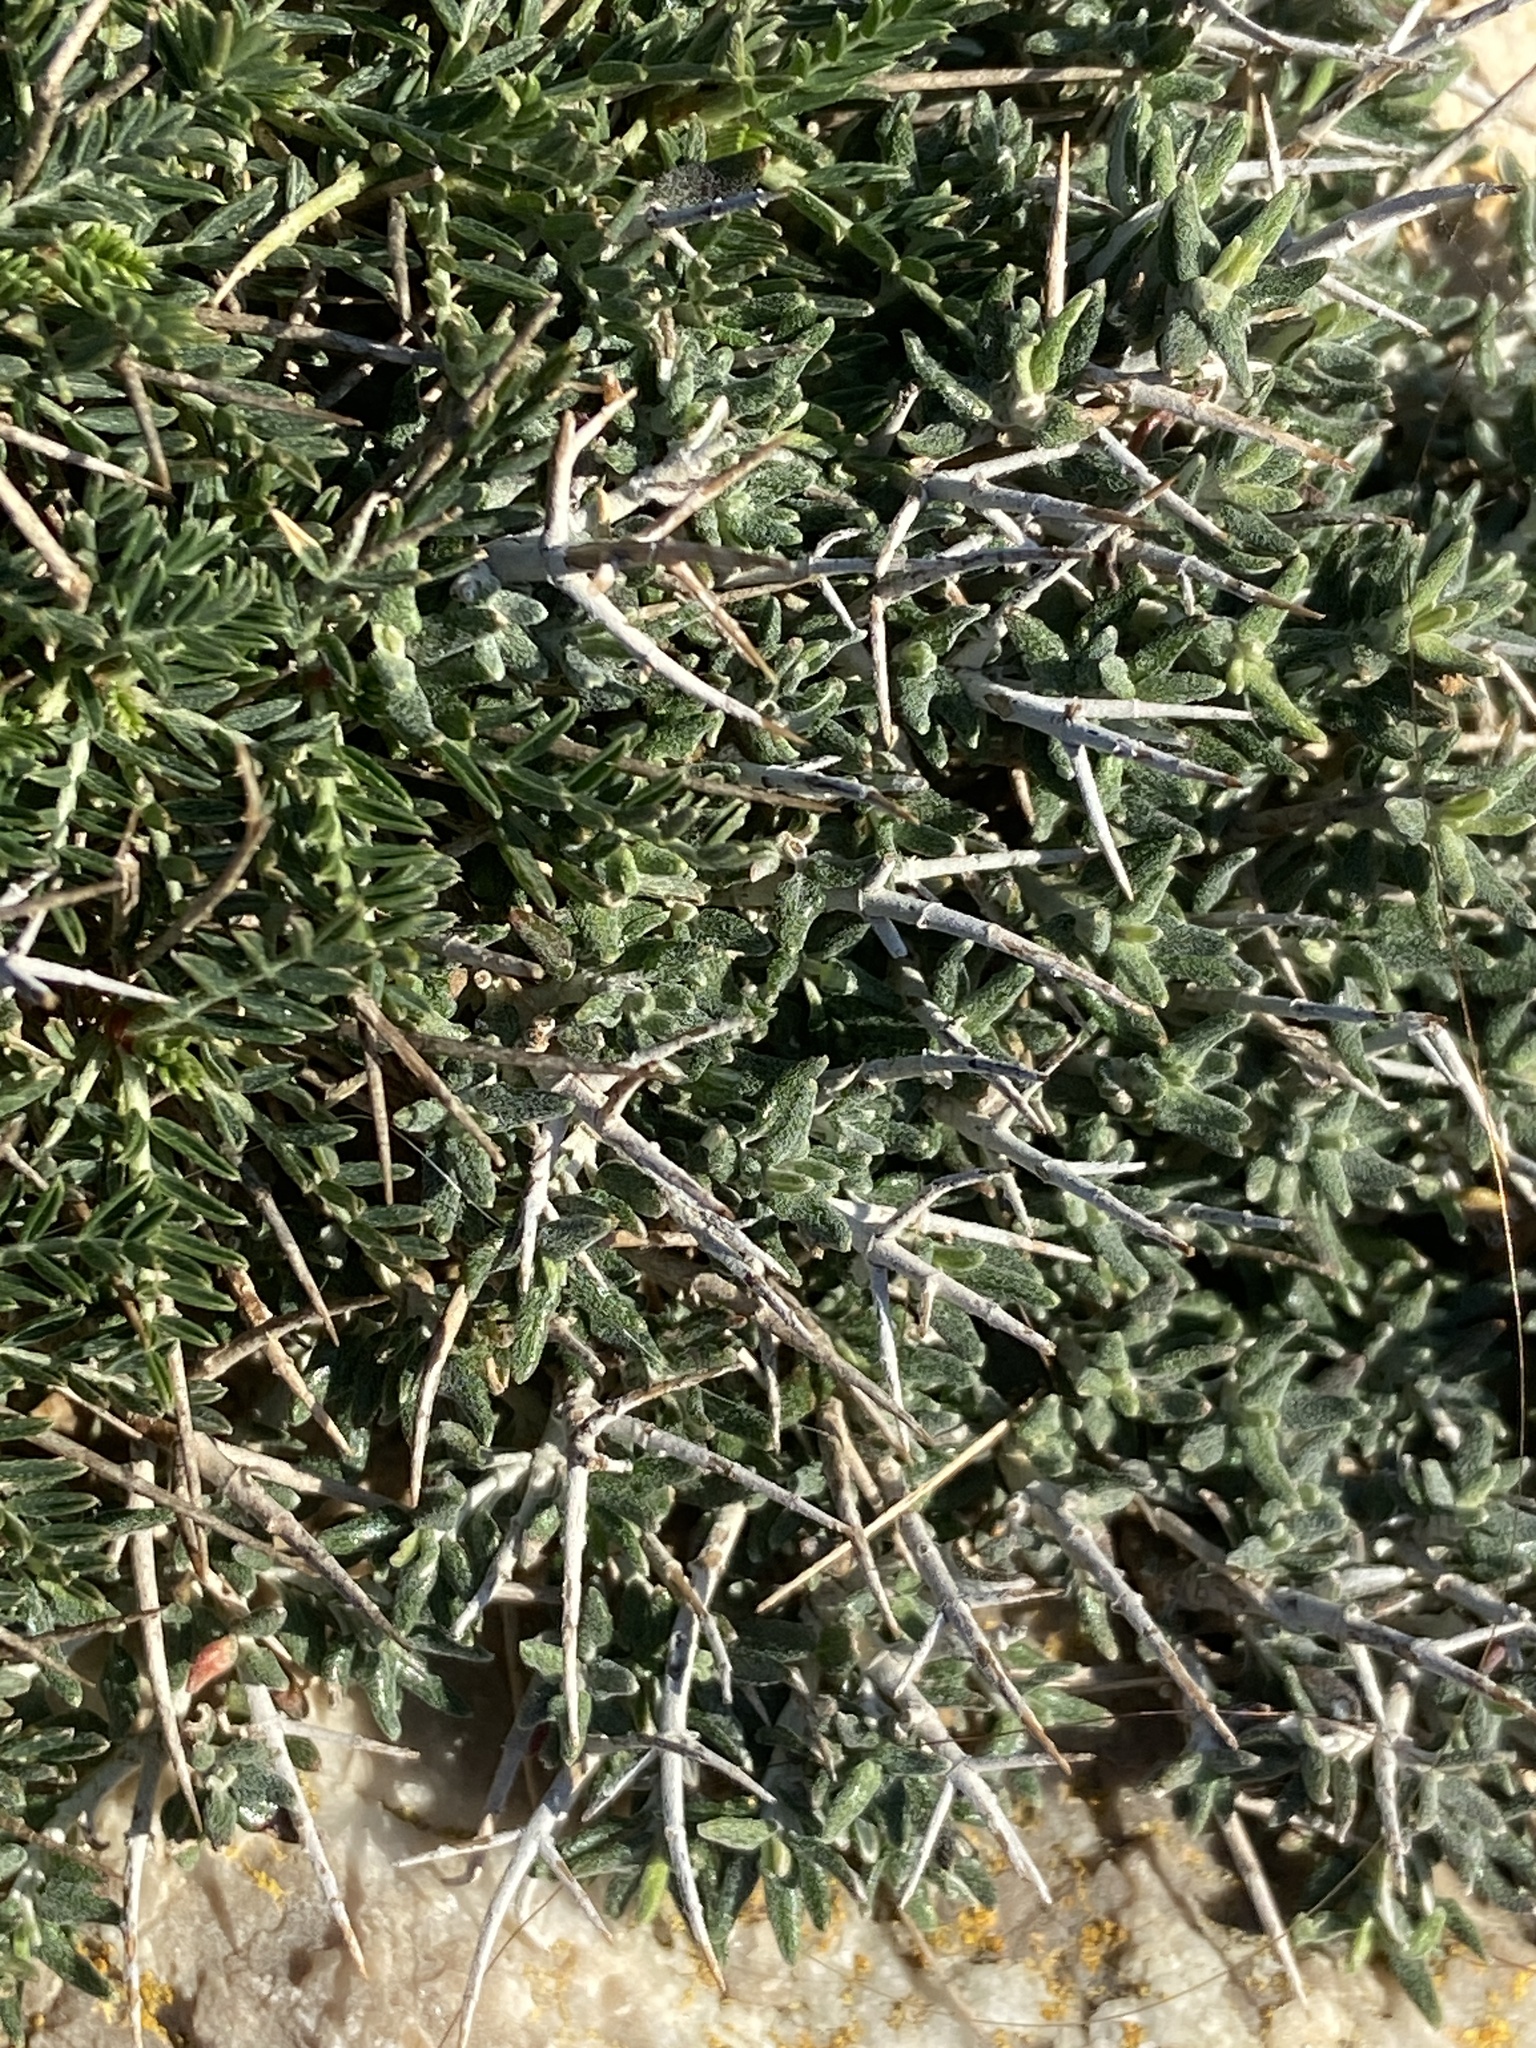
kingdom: Plantae
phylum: Tracheophyta
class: Magnoliopsida
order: Lamiales
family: Lamiaceae
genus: Teucrium
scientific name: Teucrium balearicum
